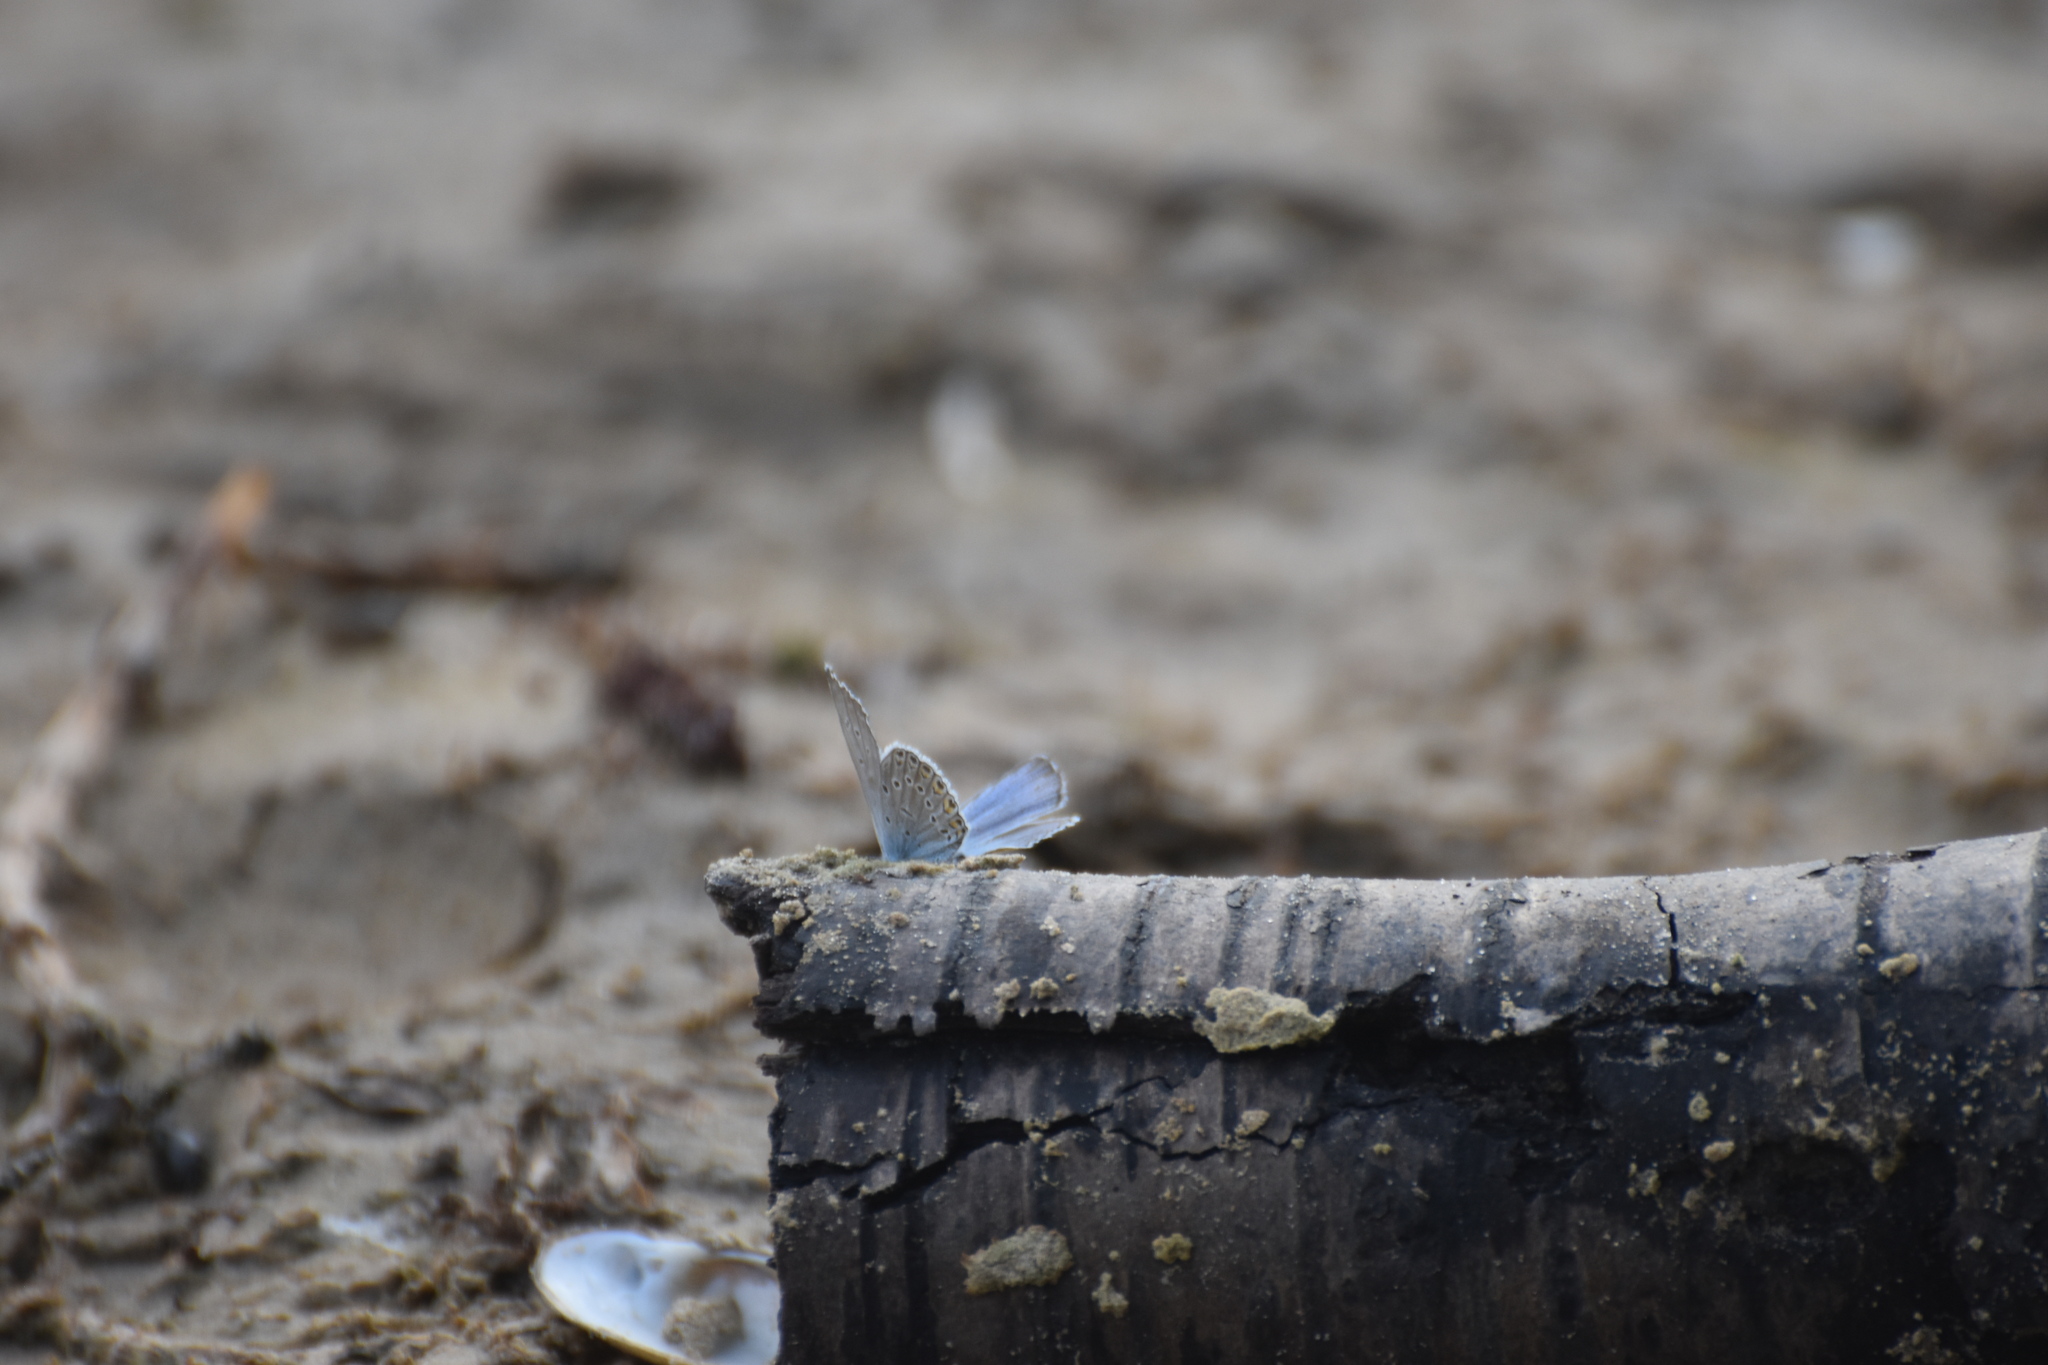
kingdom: Animalia
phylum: Arthropoda
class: Insecta
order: Lepidoptera
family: Lycaenidae
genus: Plebejus
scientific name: Plebejus amanda
